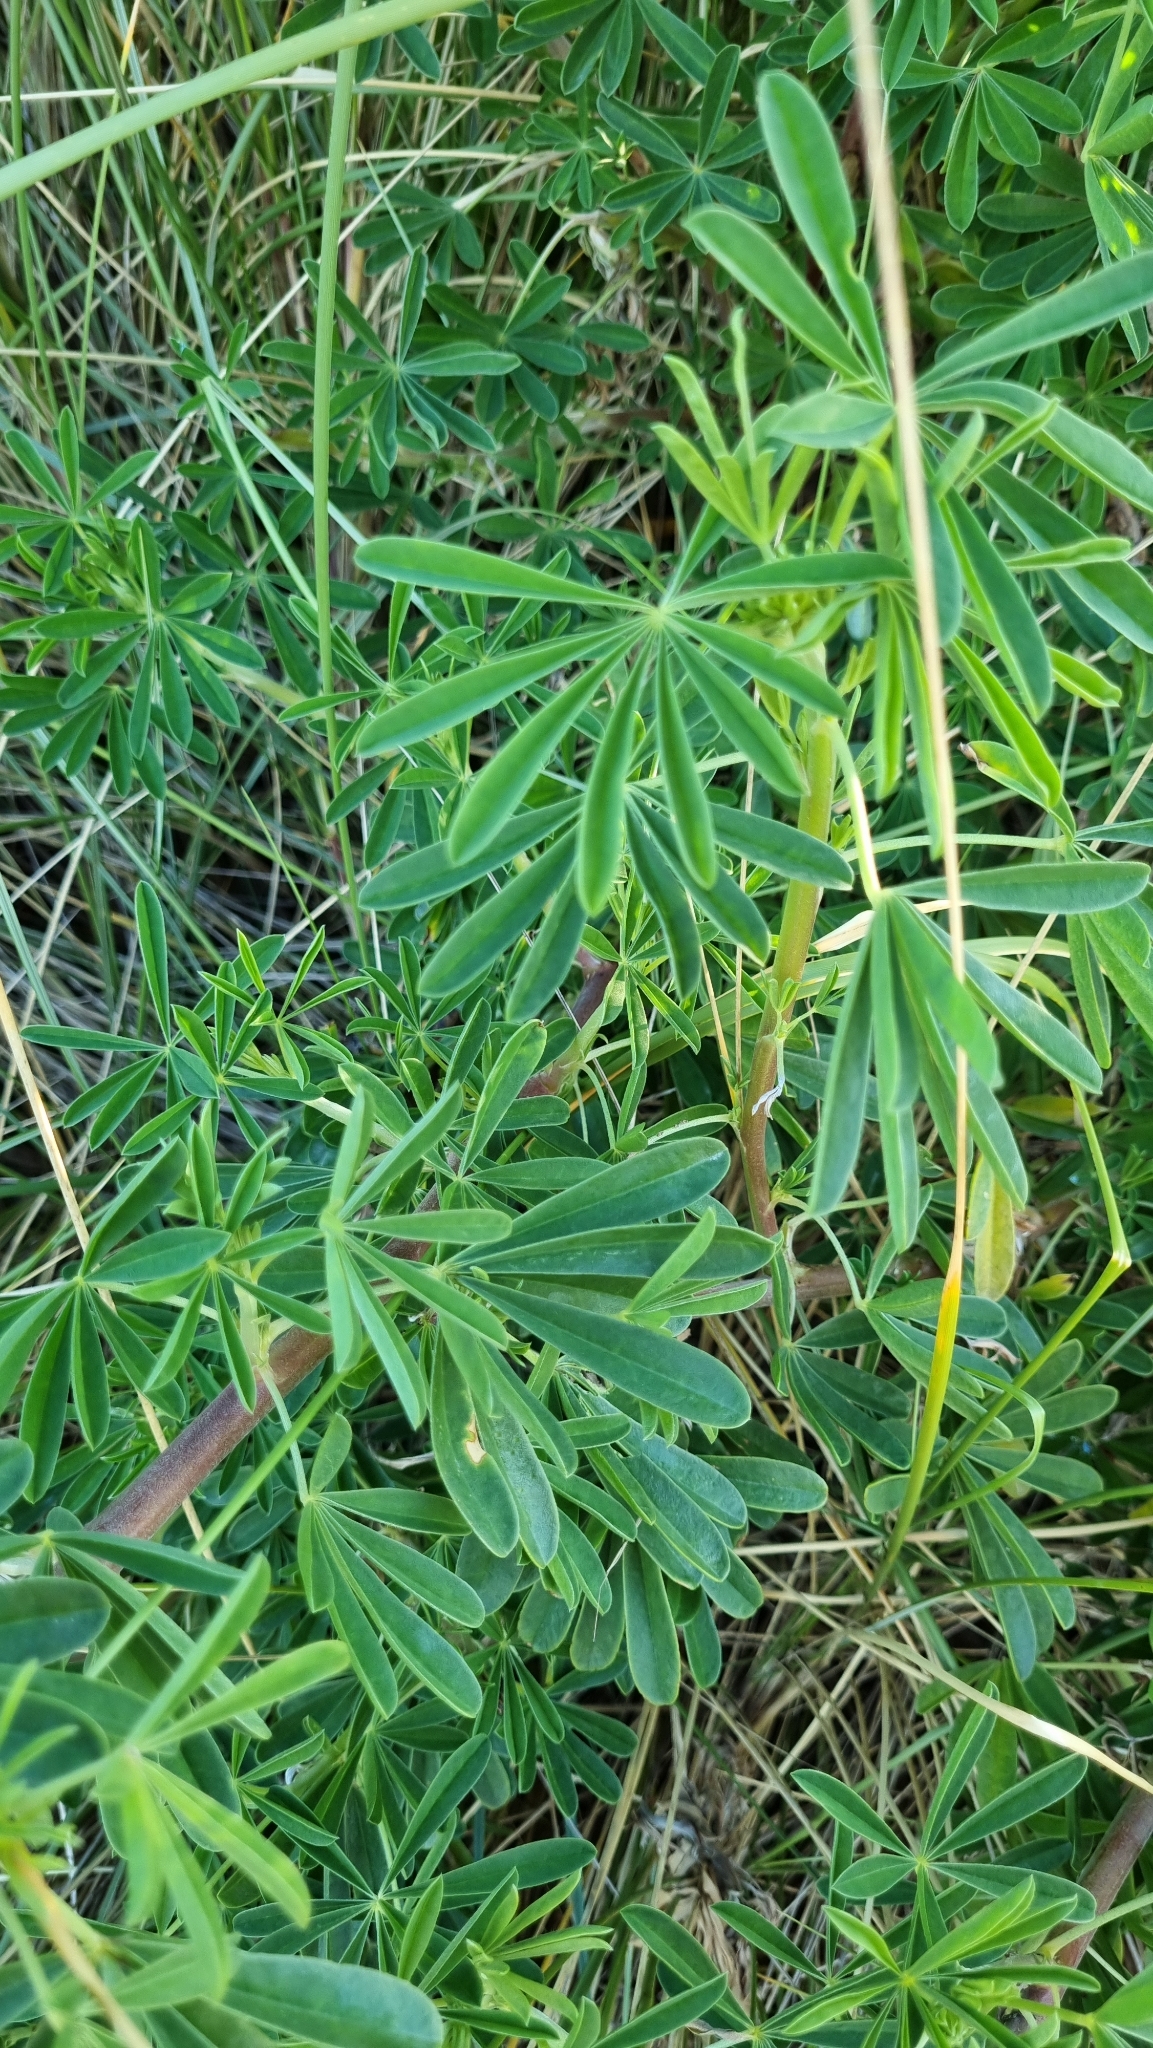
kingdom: Plantae
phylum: Tracheophyta
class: Magnoliopsida
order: Fabales
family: Fabaceae
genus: Lupinus
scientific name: Lupinus arboreus
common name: Yellow bush lupine
